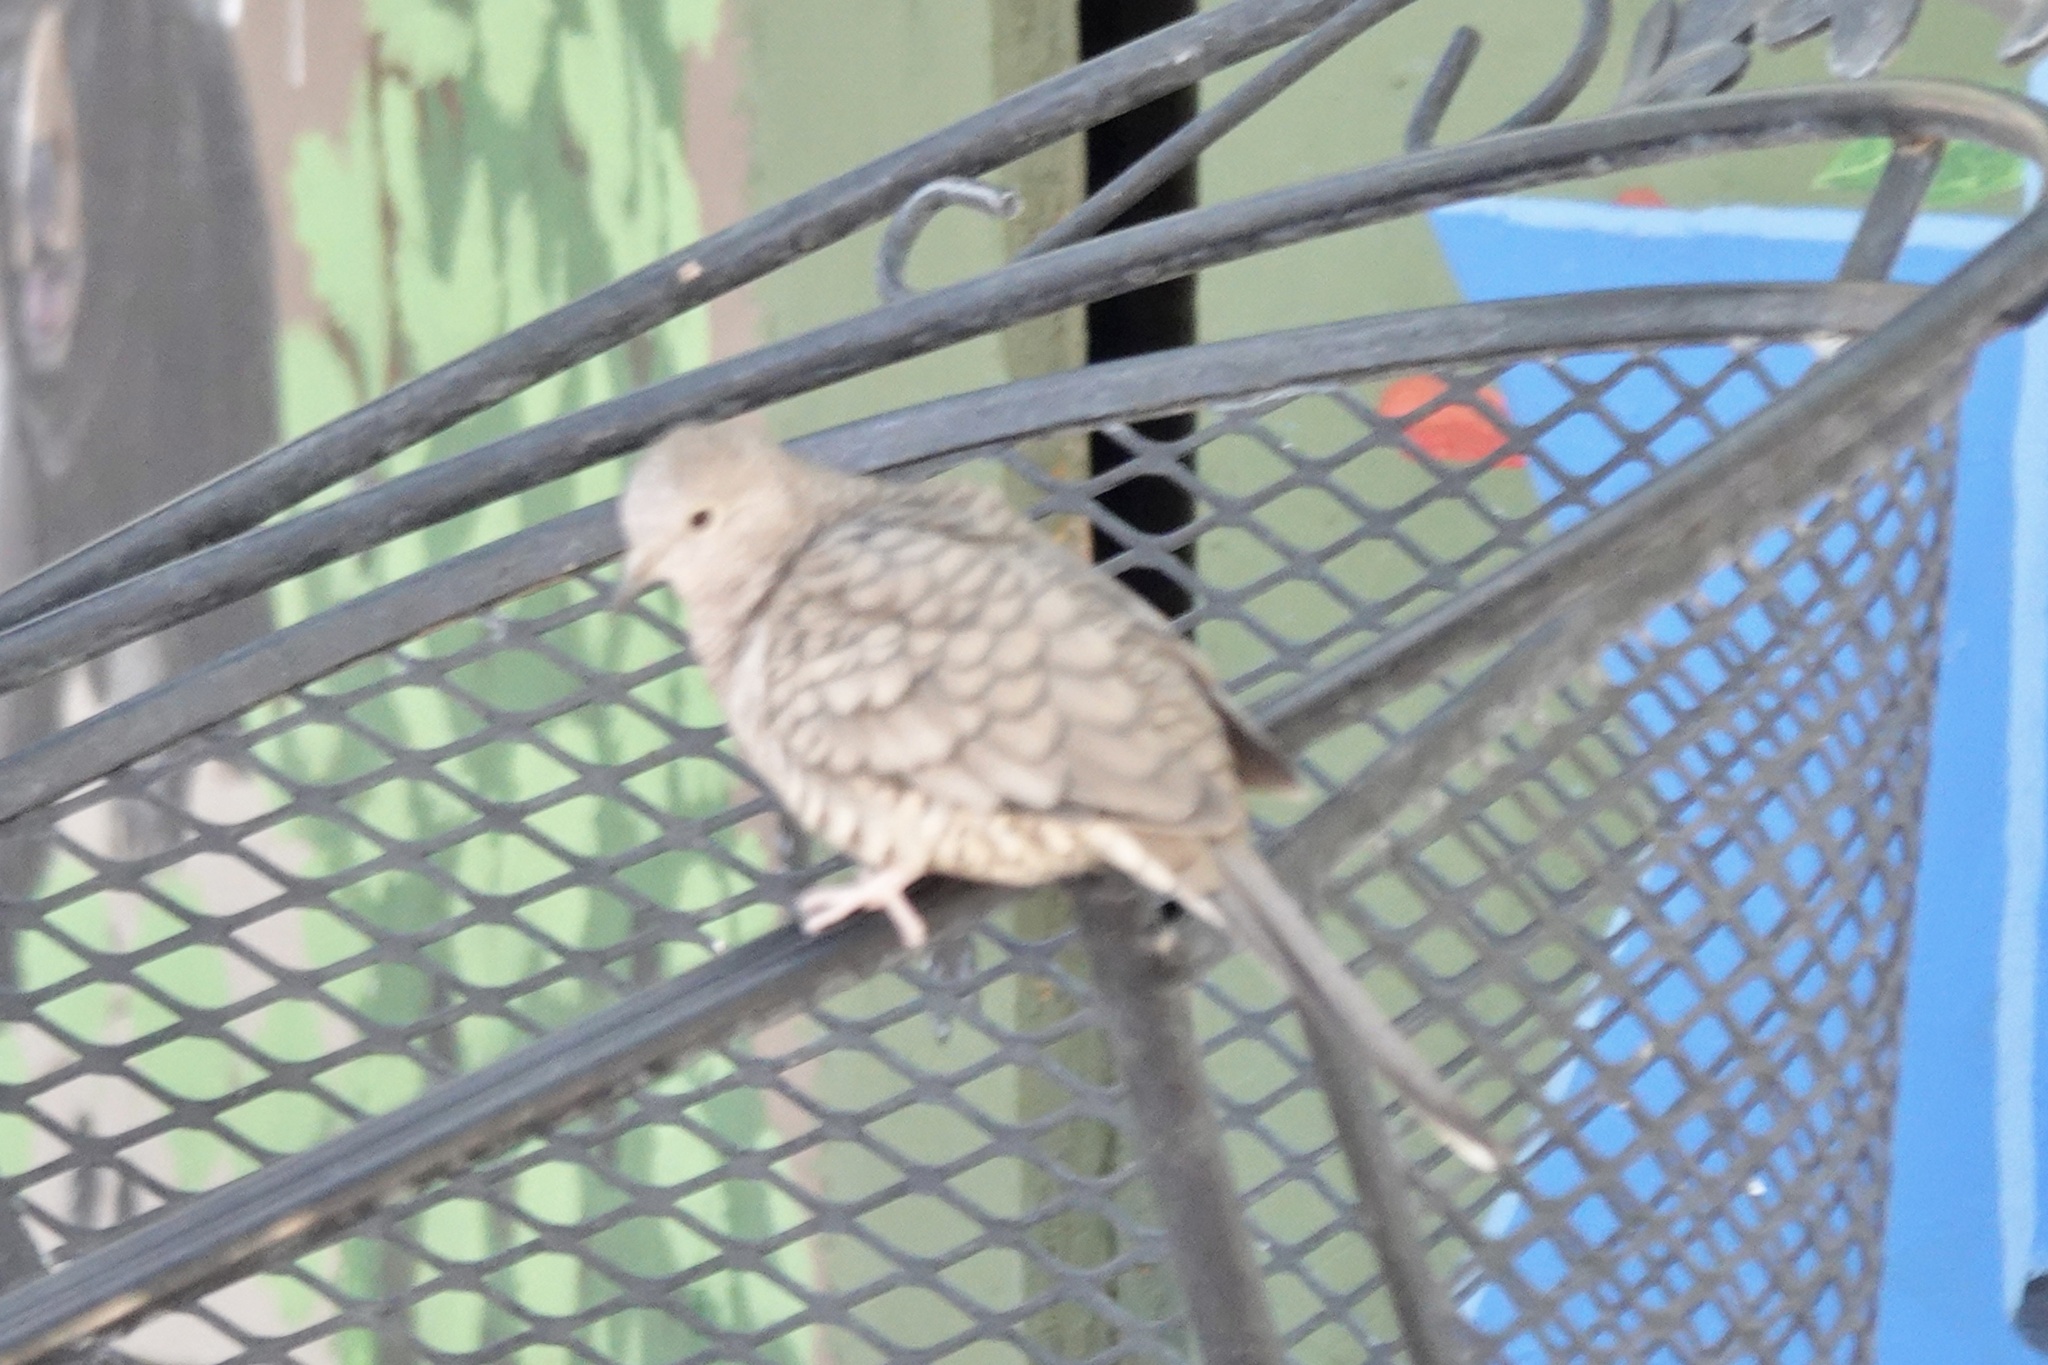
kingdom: Animalia
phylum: Chordata
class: Aves
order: Columbiformes
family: Columbidae
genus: Columbina
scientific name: Columbina inca
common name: Inca dove
